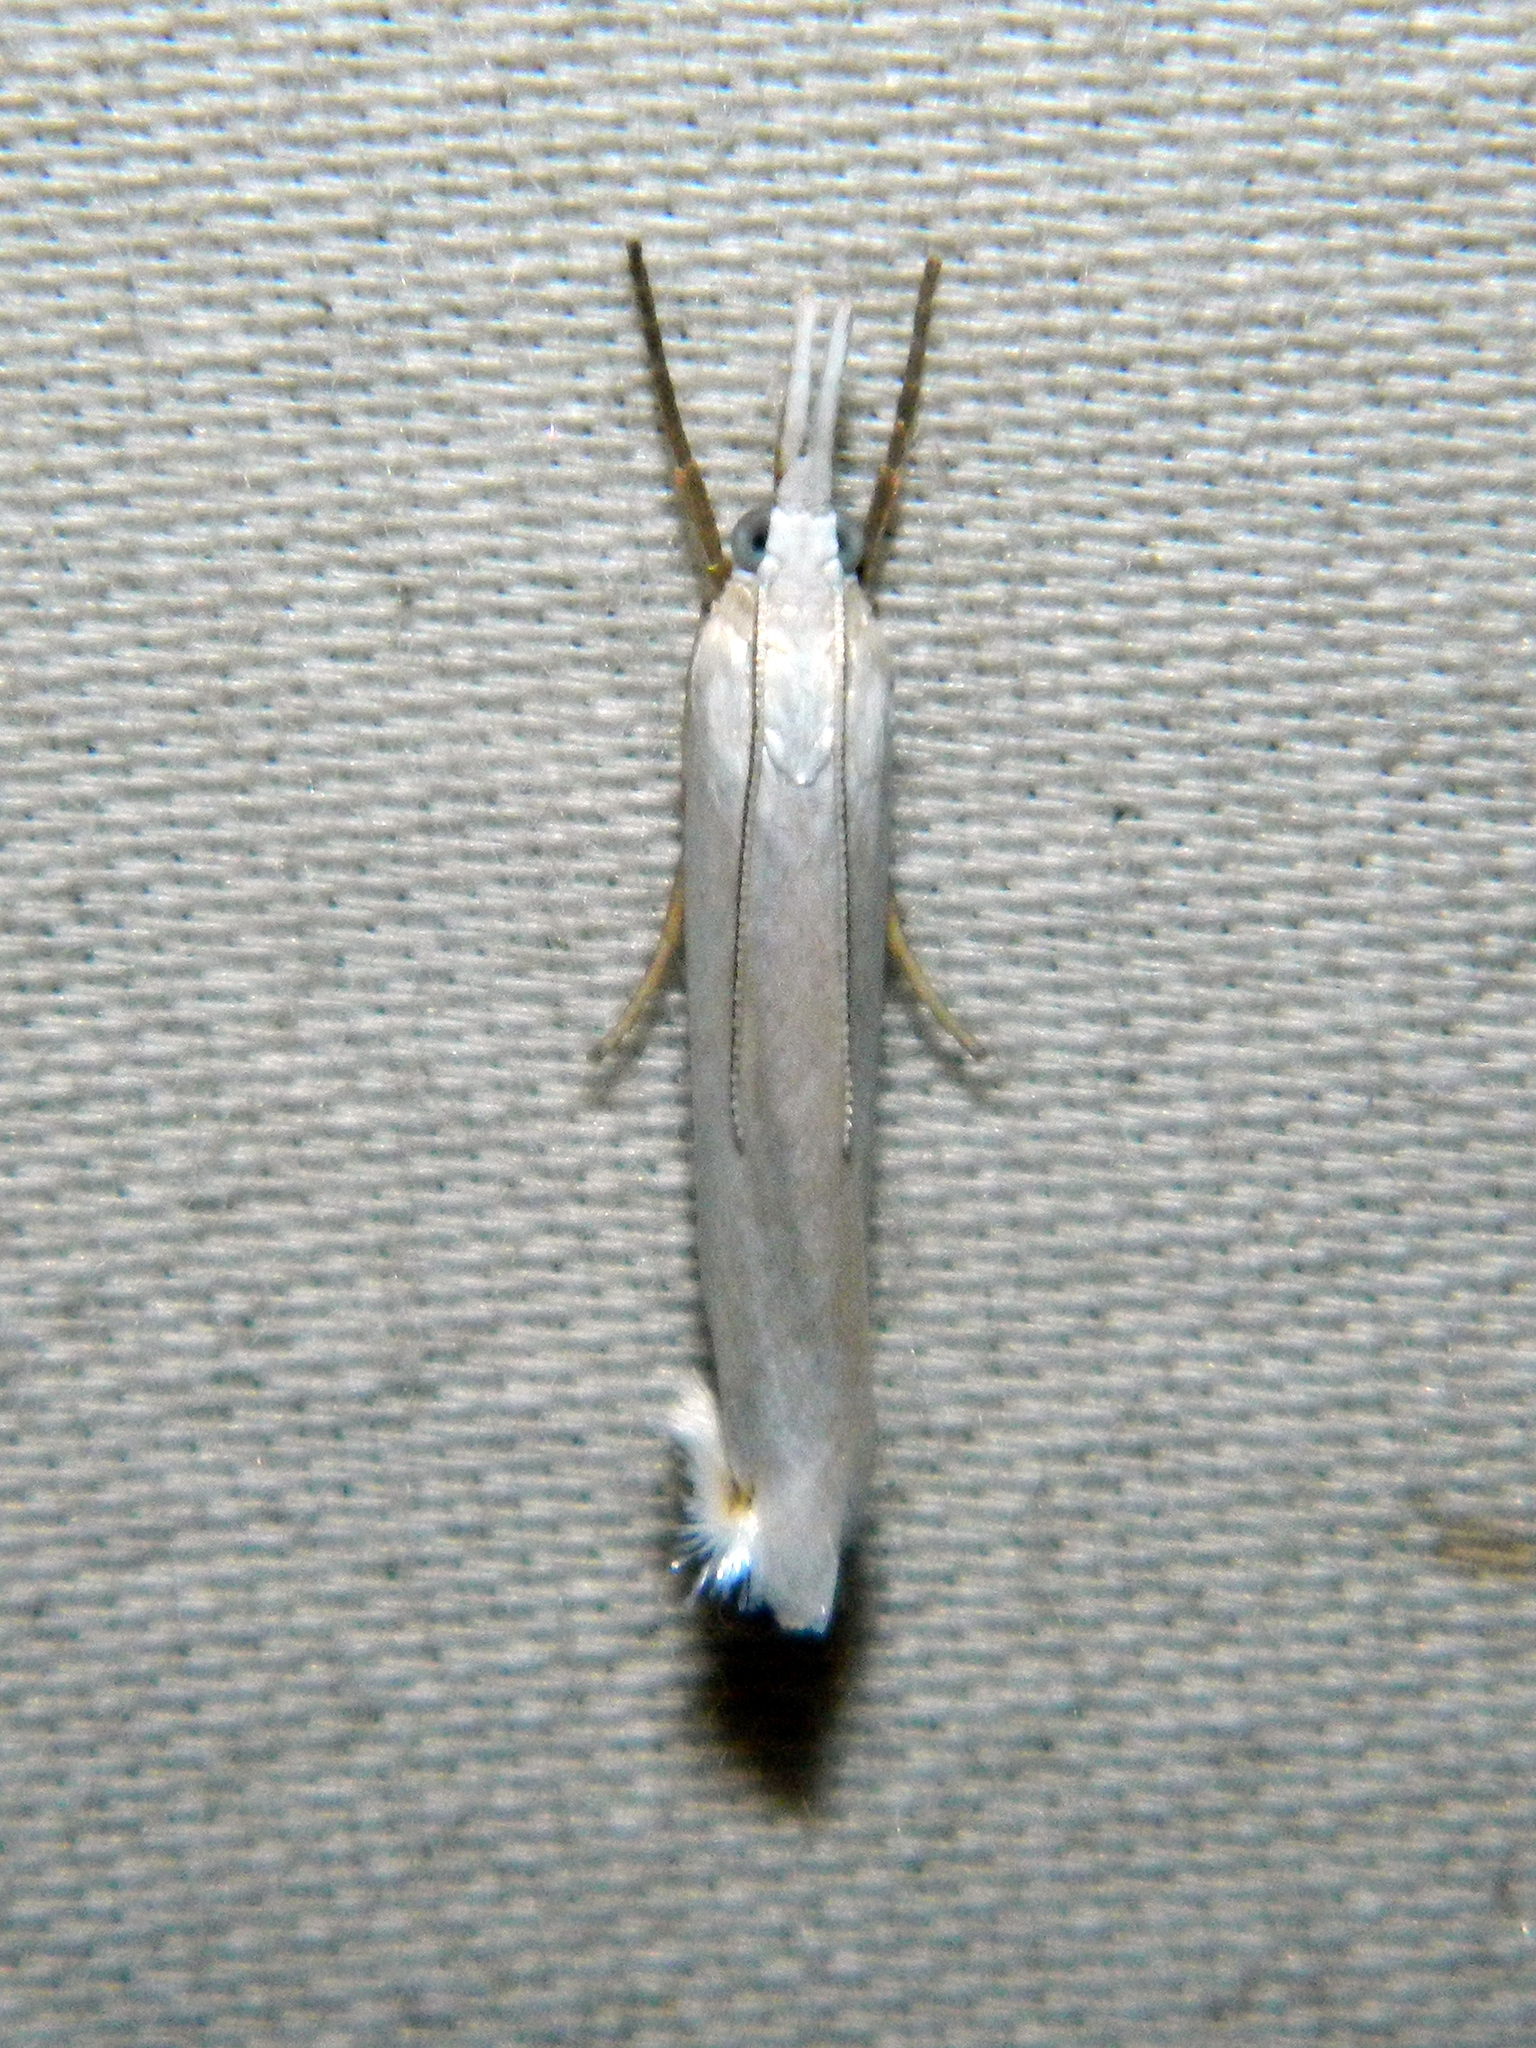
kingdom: Animalia
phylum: Arthropoda
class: Insecta
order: Lepidoptera
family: Crambidae
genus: Crambus
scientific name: Crambus perlellus
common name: Yellow satin veneer
